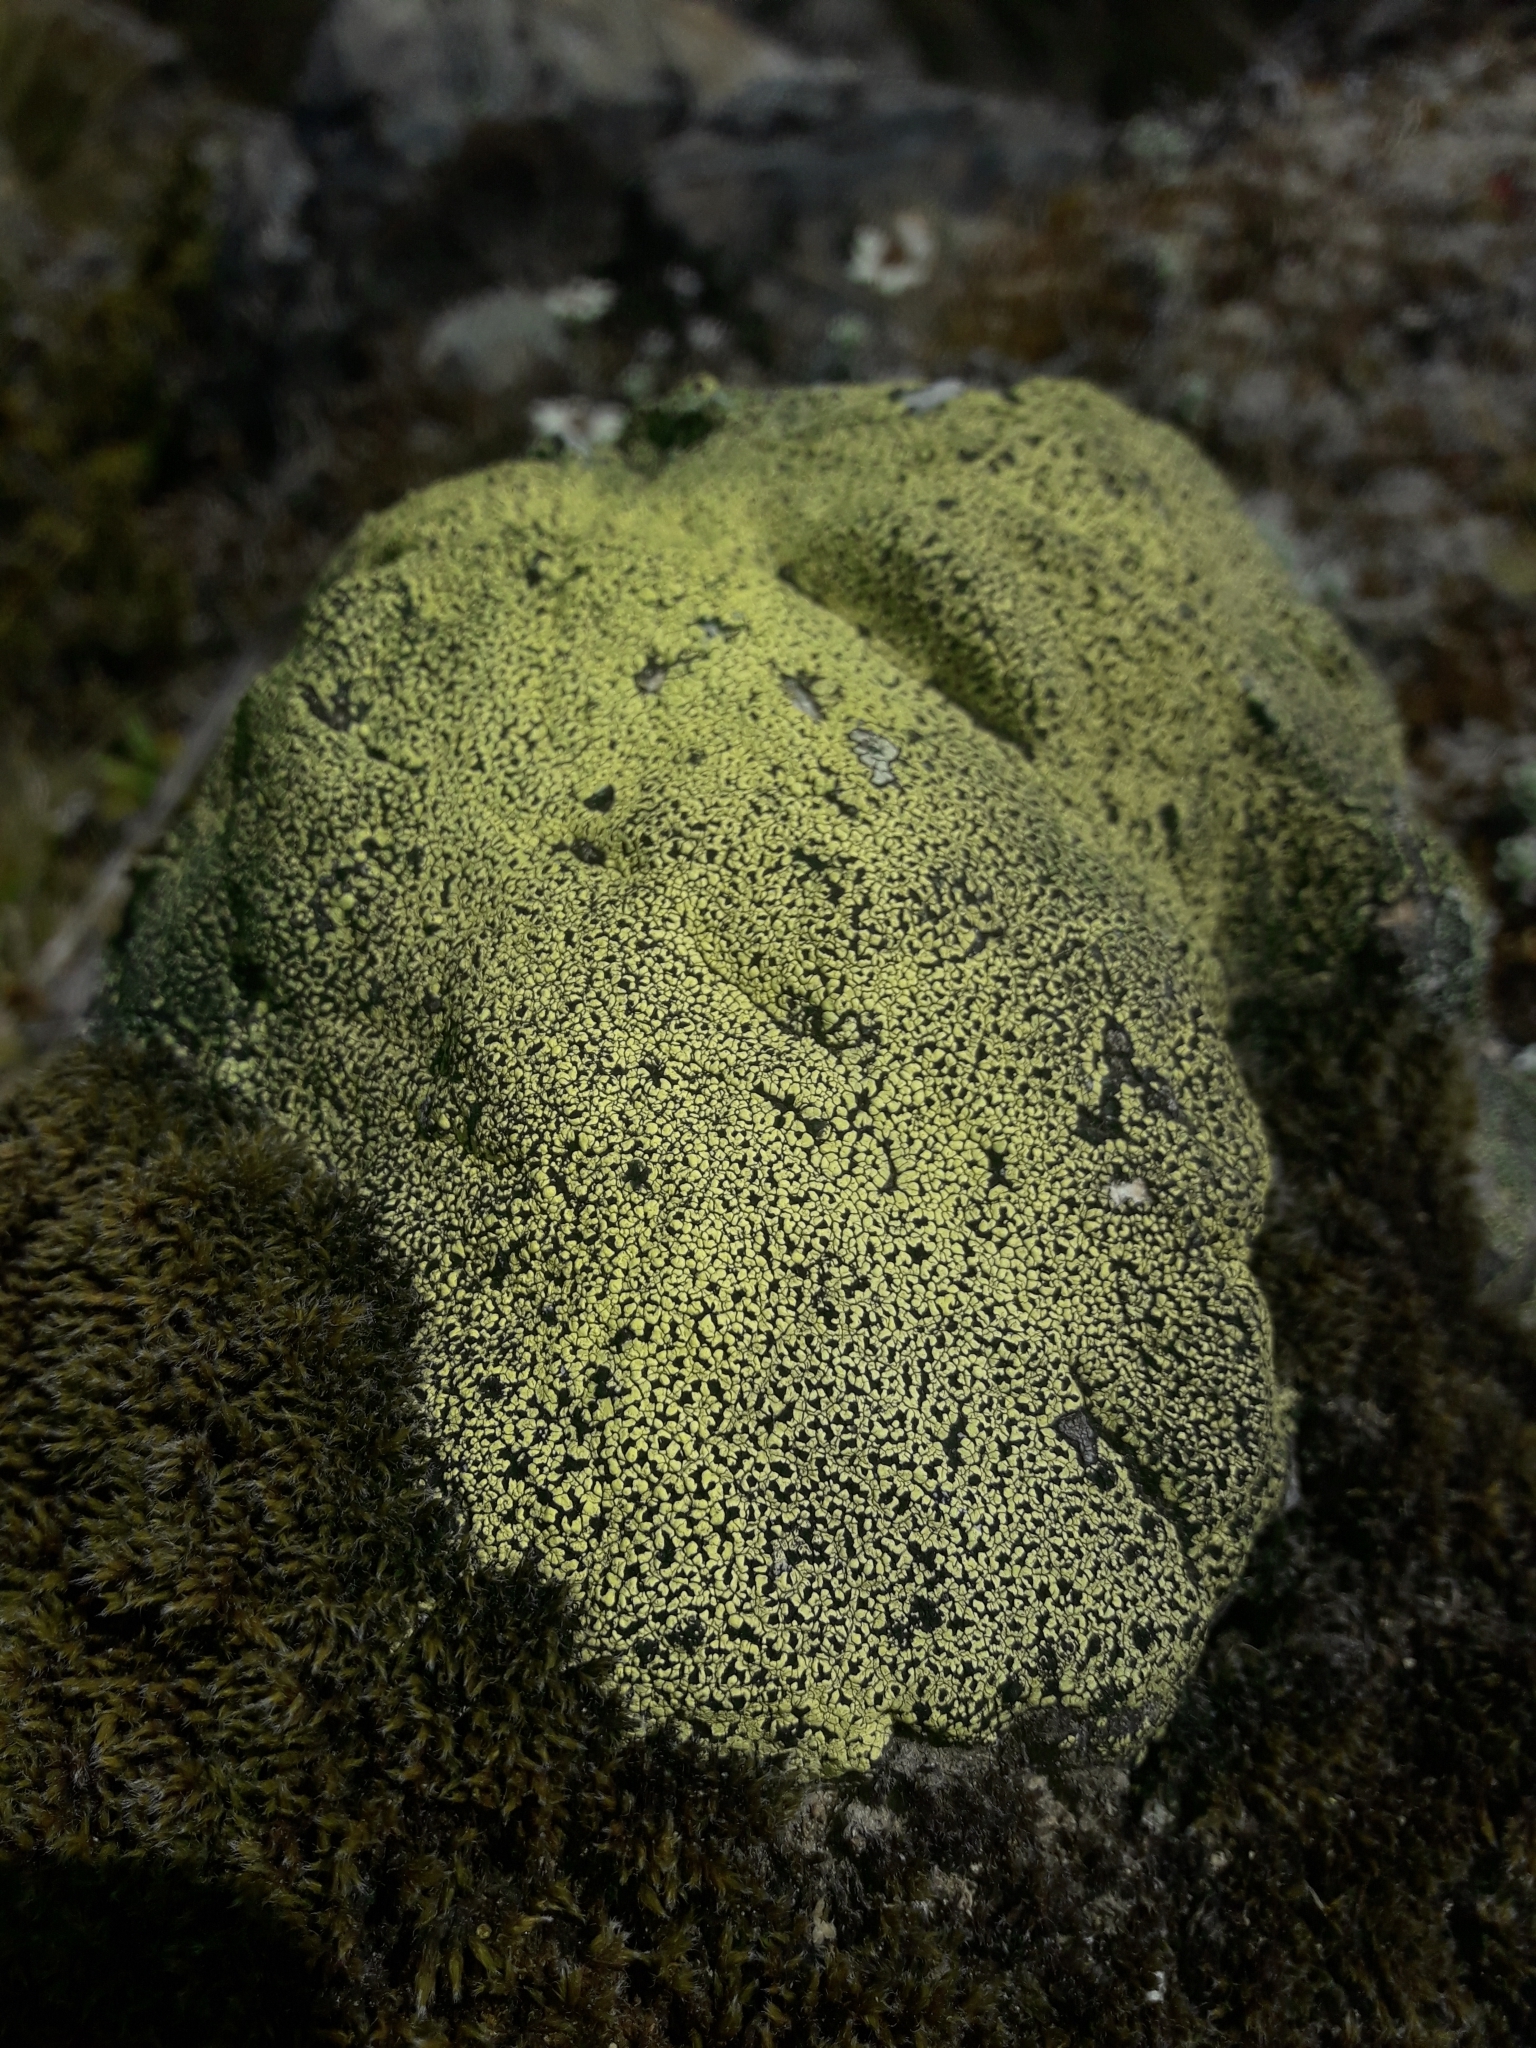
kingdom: Fungi
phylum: Ascomycota
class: Lecanoromycetes
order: Rhizocarpales
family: Rhizocarpaceae
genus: Rhizocarpon
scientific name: Rhizocarpon geographicum
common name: Yellow map lichen
